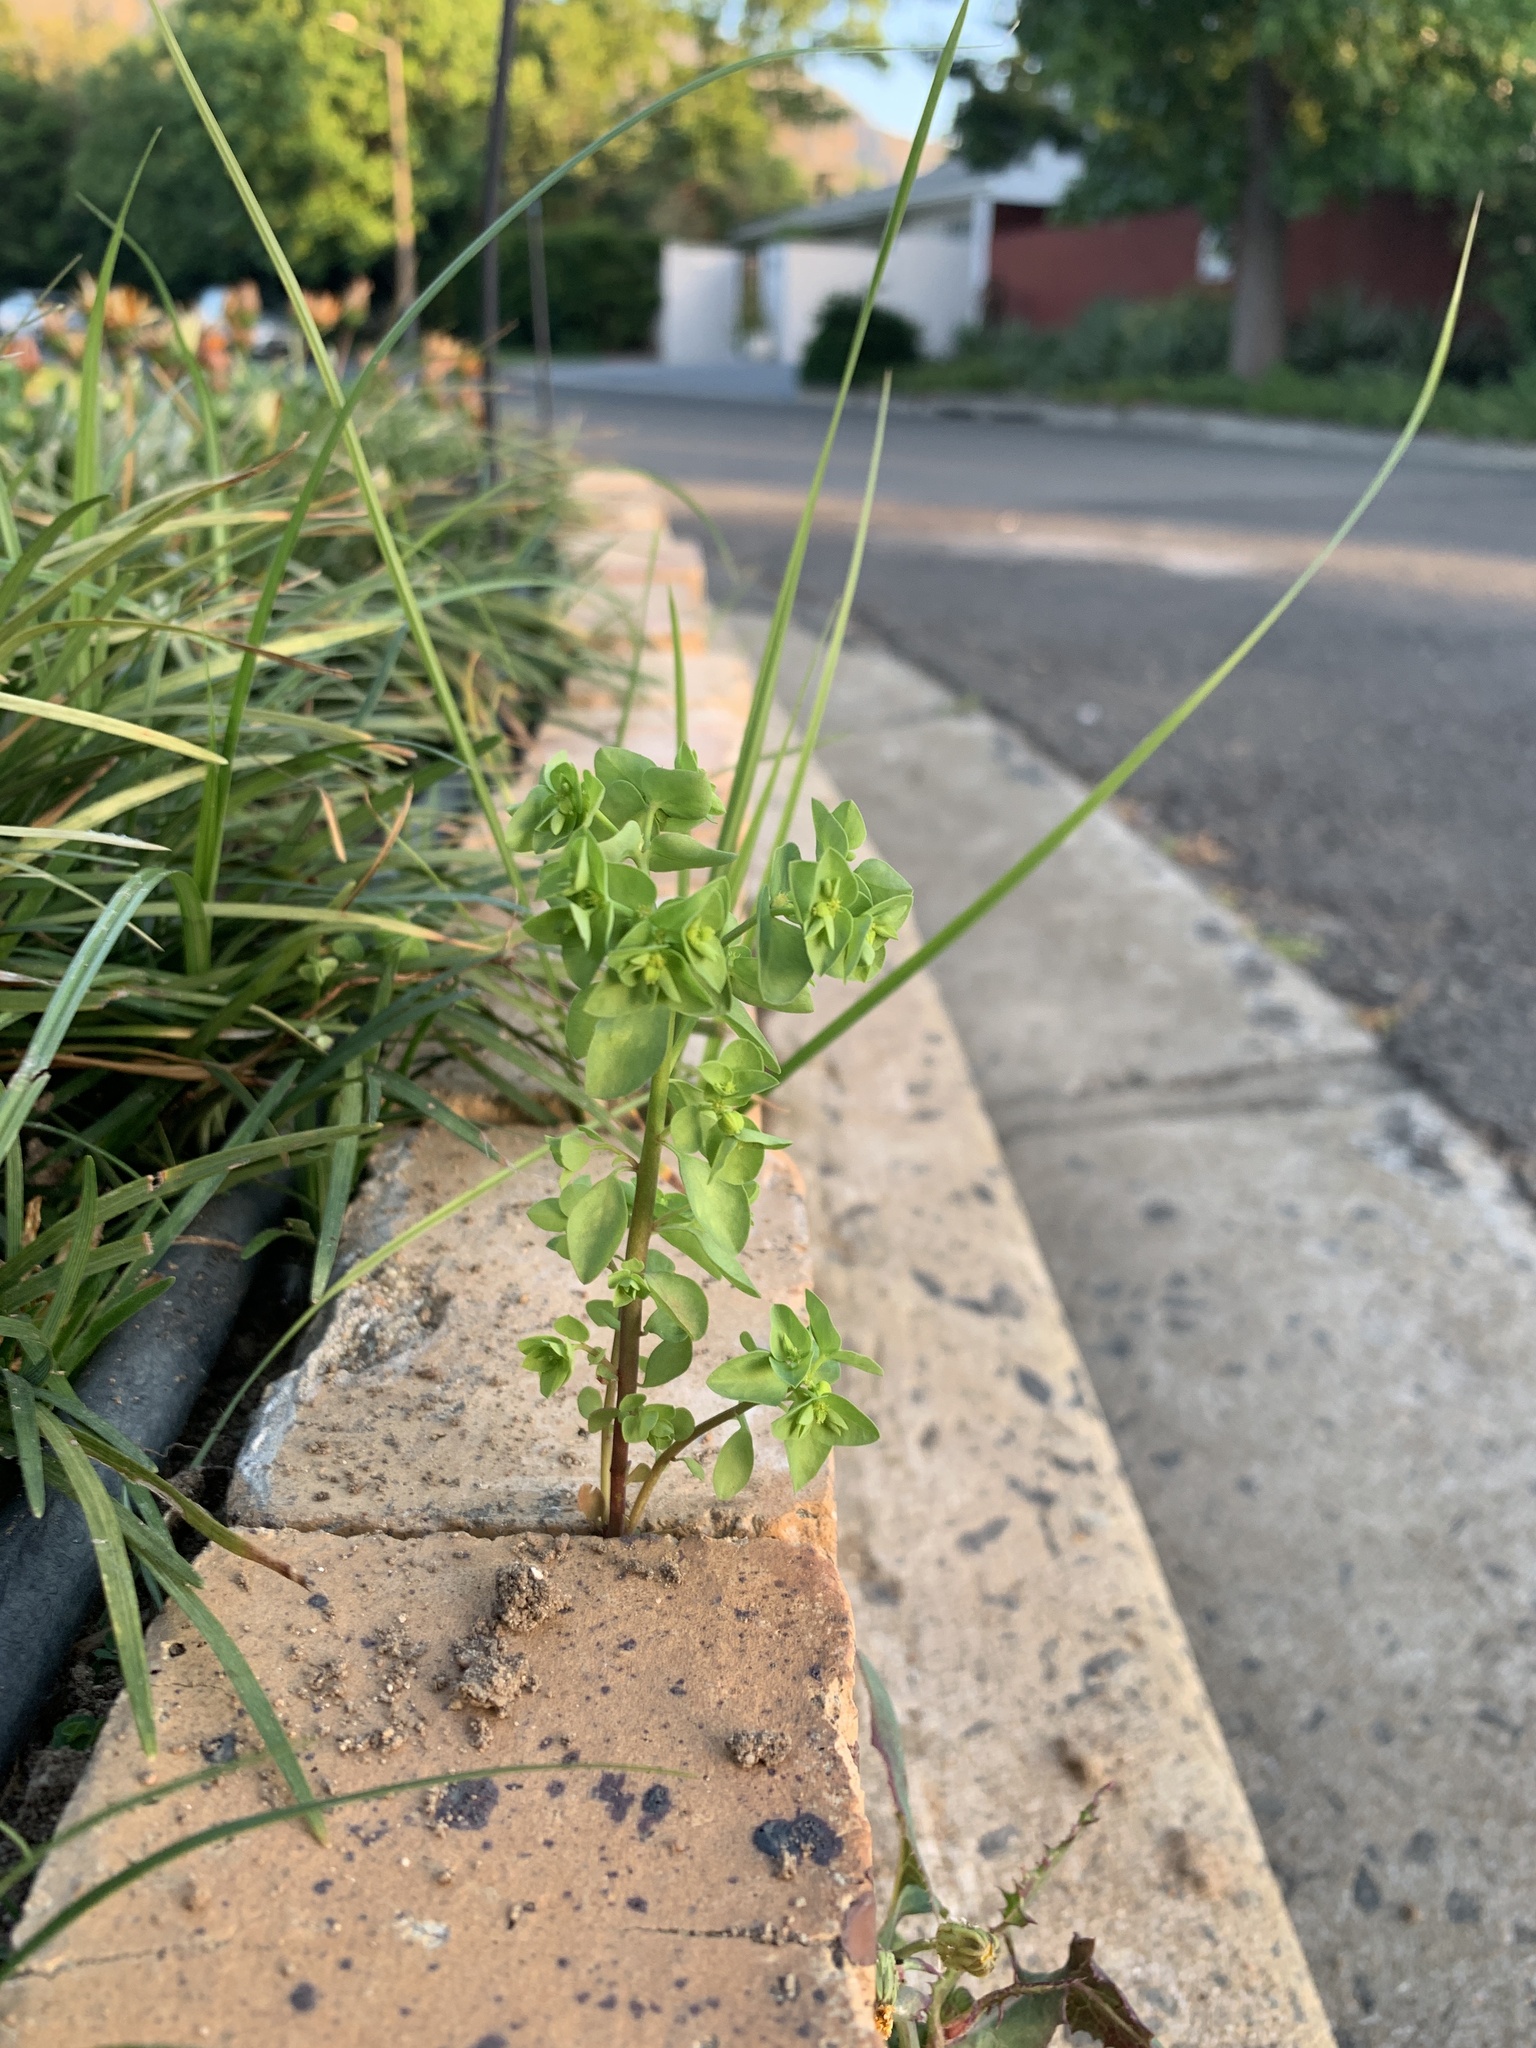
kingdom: Plantae
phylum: Tracheophyta
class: Magnoliopsida
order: Malpighiales
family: Euphorbiaceae
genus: Euphorbia
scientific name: Euphorbia peplus
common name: Petty spurge
